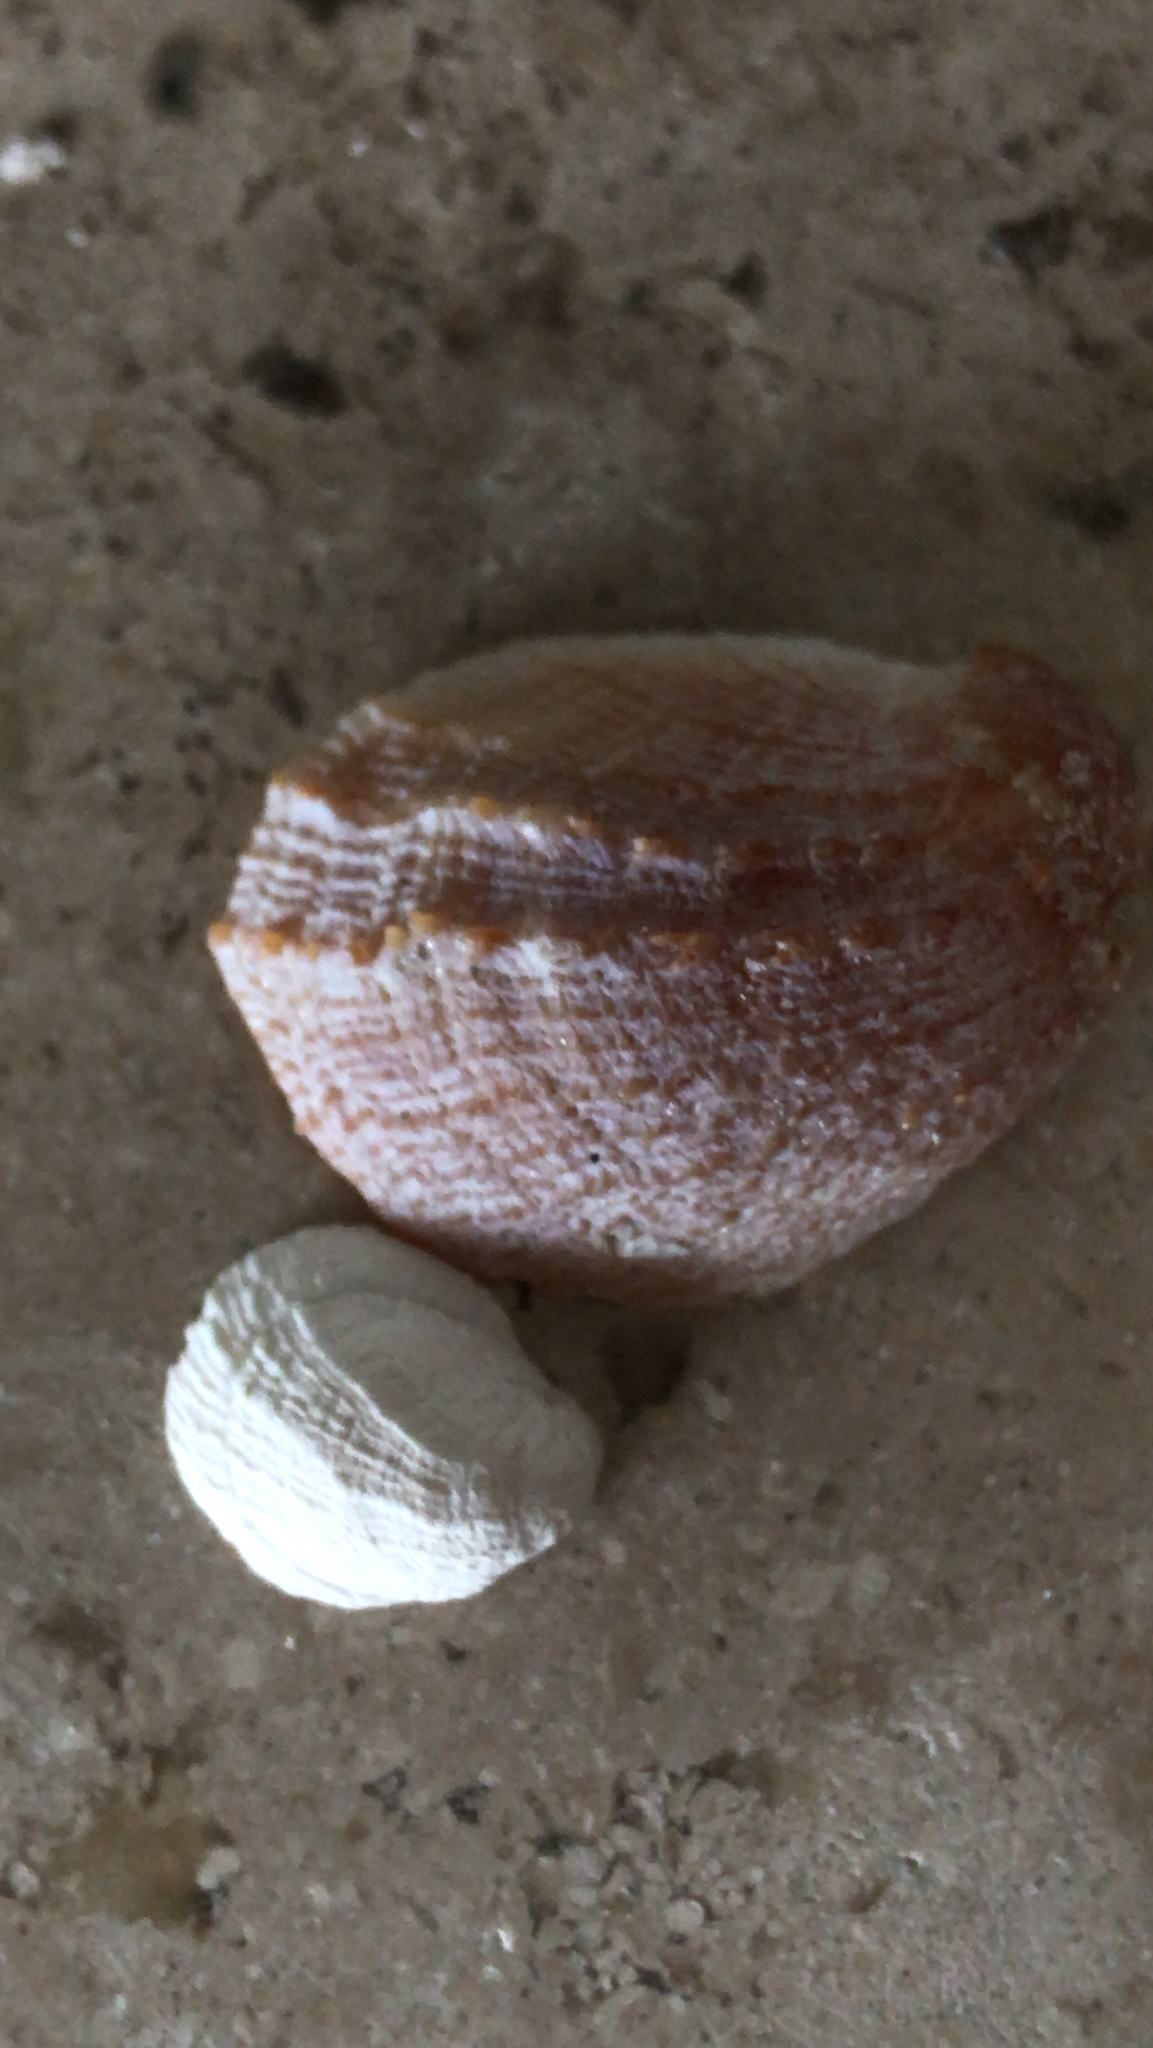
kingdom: Animalia
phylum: Mollusca
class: Gastropoda
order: Littorinimorpha
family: Calyptraeidae
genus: Bostrycapulus
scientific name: Bostrycapulus aculeatus
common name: Spiny slippersnail
